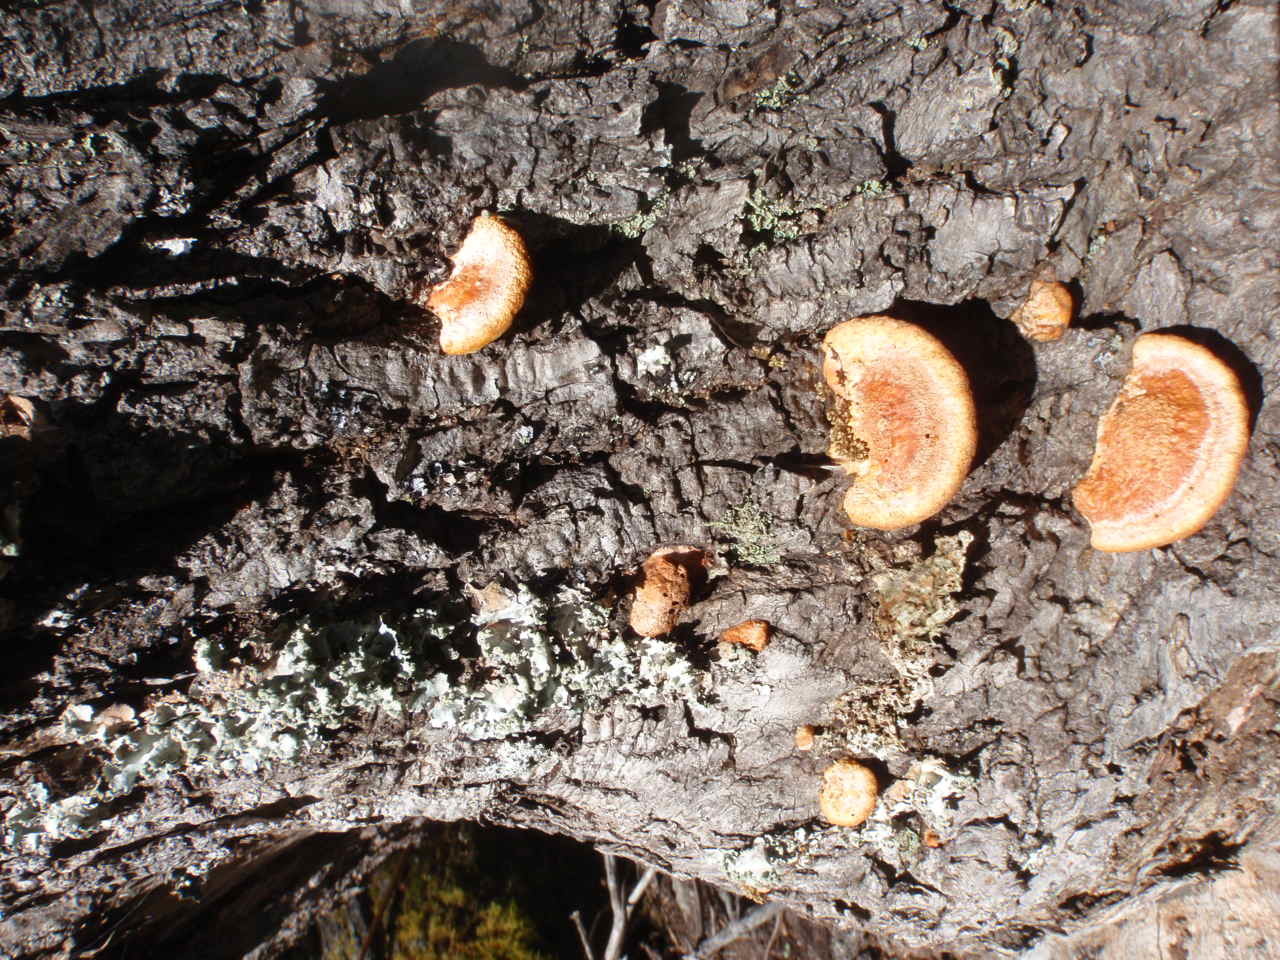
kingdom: Fungi
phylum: Basidiomycota
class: Agaricomycetes
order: Polyporales
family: Polyporaceae
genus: Trametes
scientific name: Trametes coccinea
